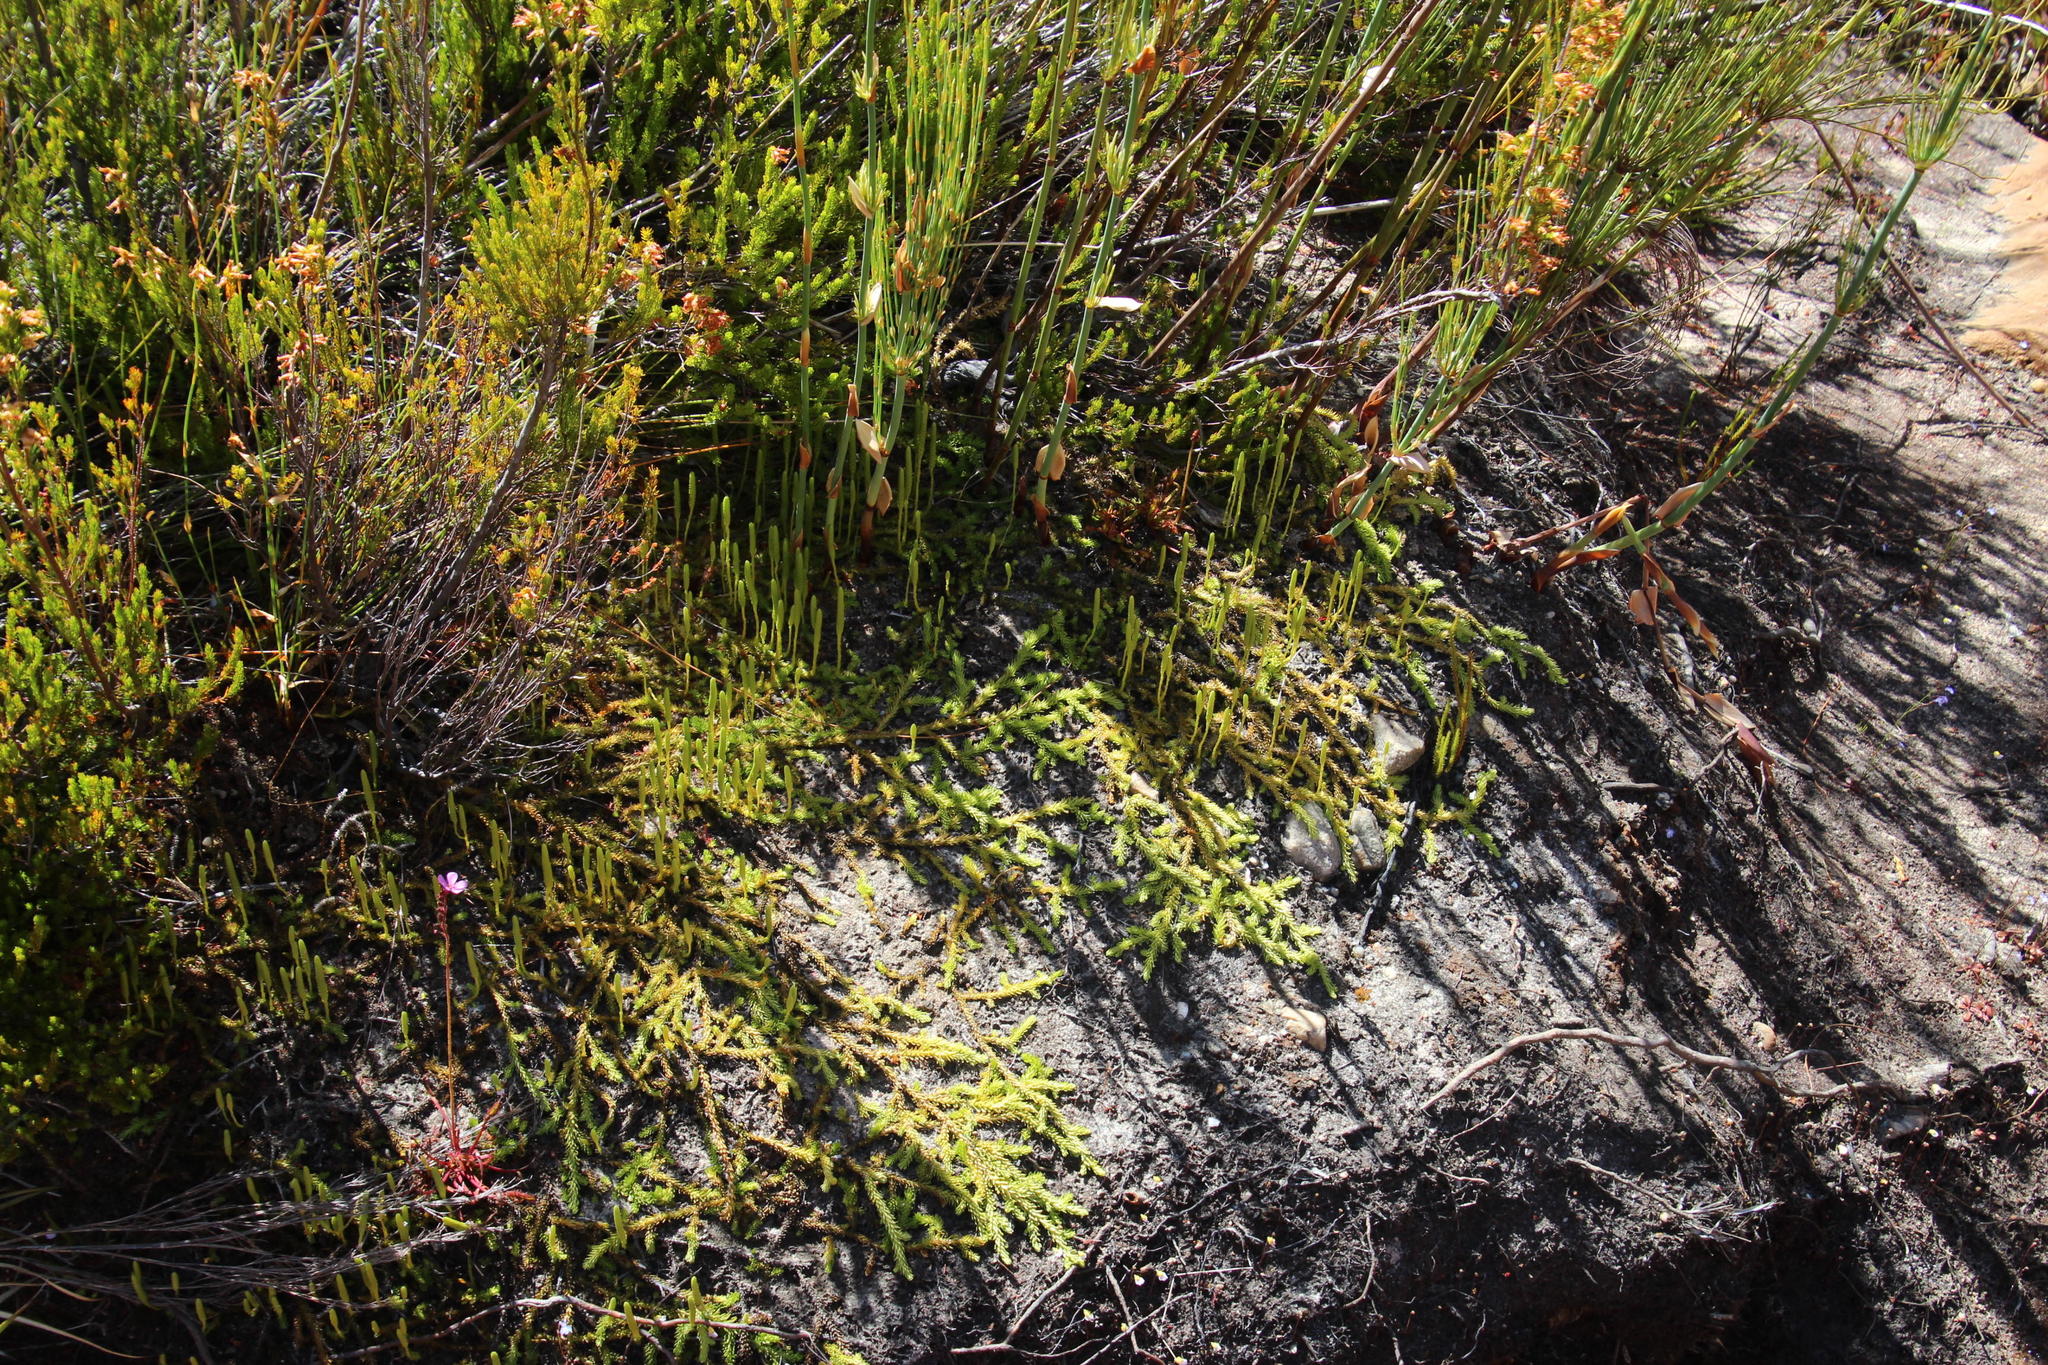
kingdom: Plantae
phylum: Tracheophyta
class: Lycopodiopsida
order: Lycopodiales
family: Lycopodiaceae
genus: Pseudolycopodiella
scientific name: Pseudolycopodiella caroliniana
